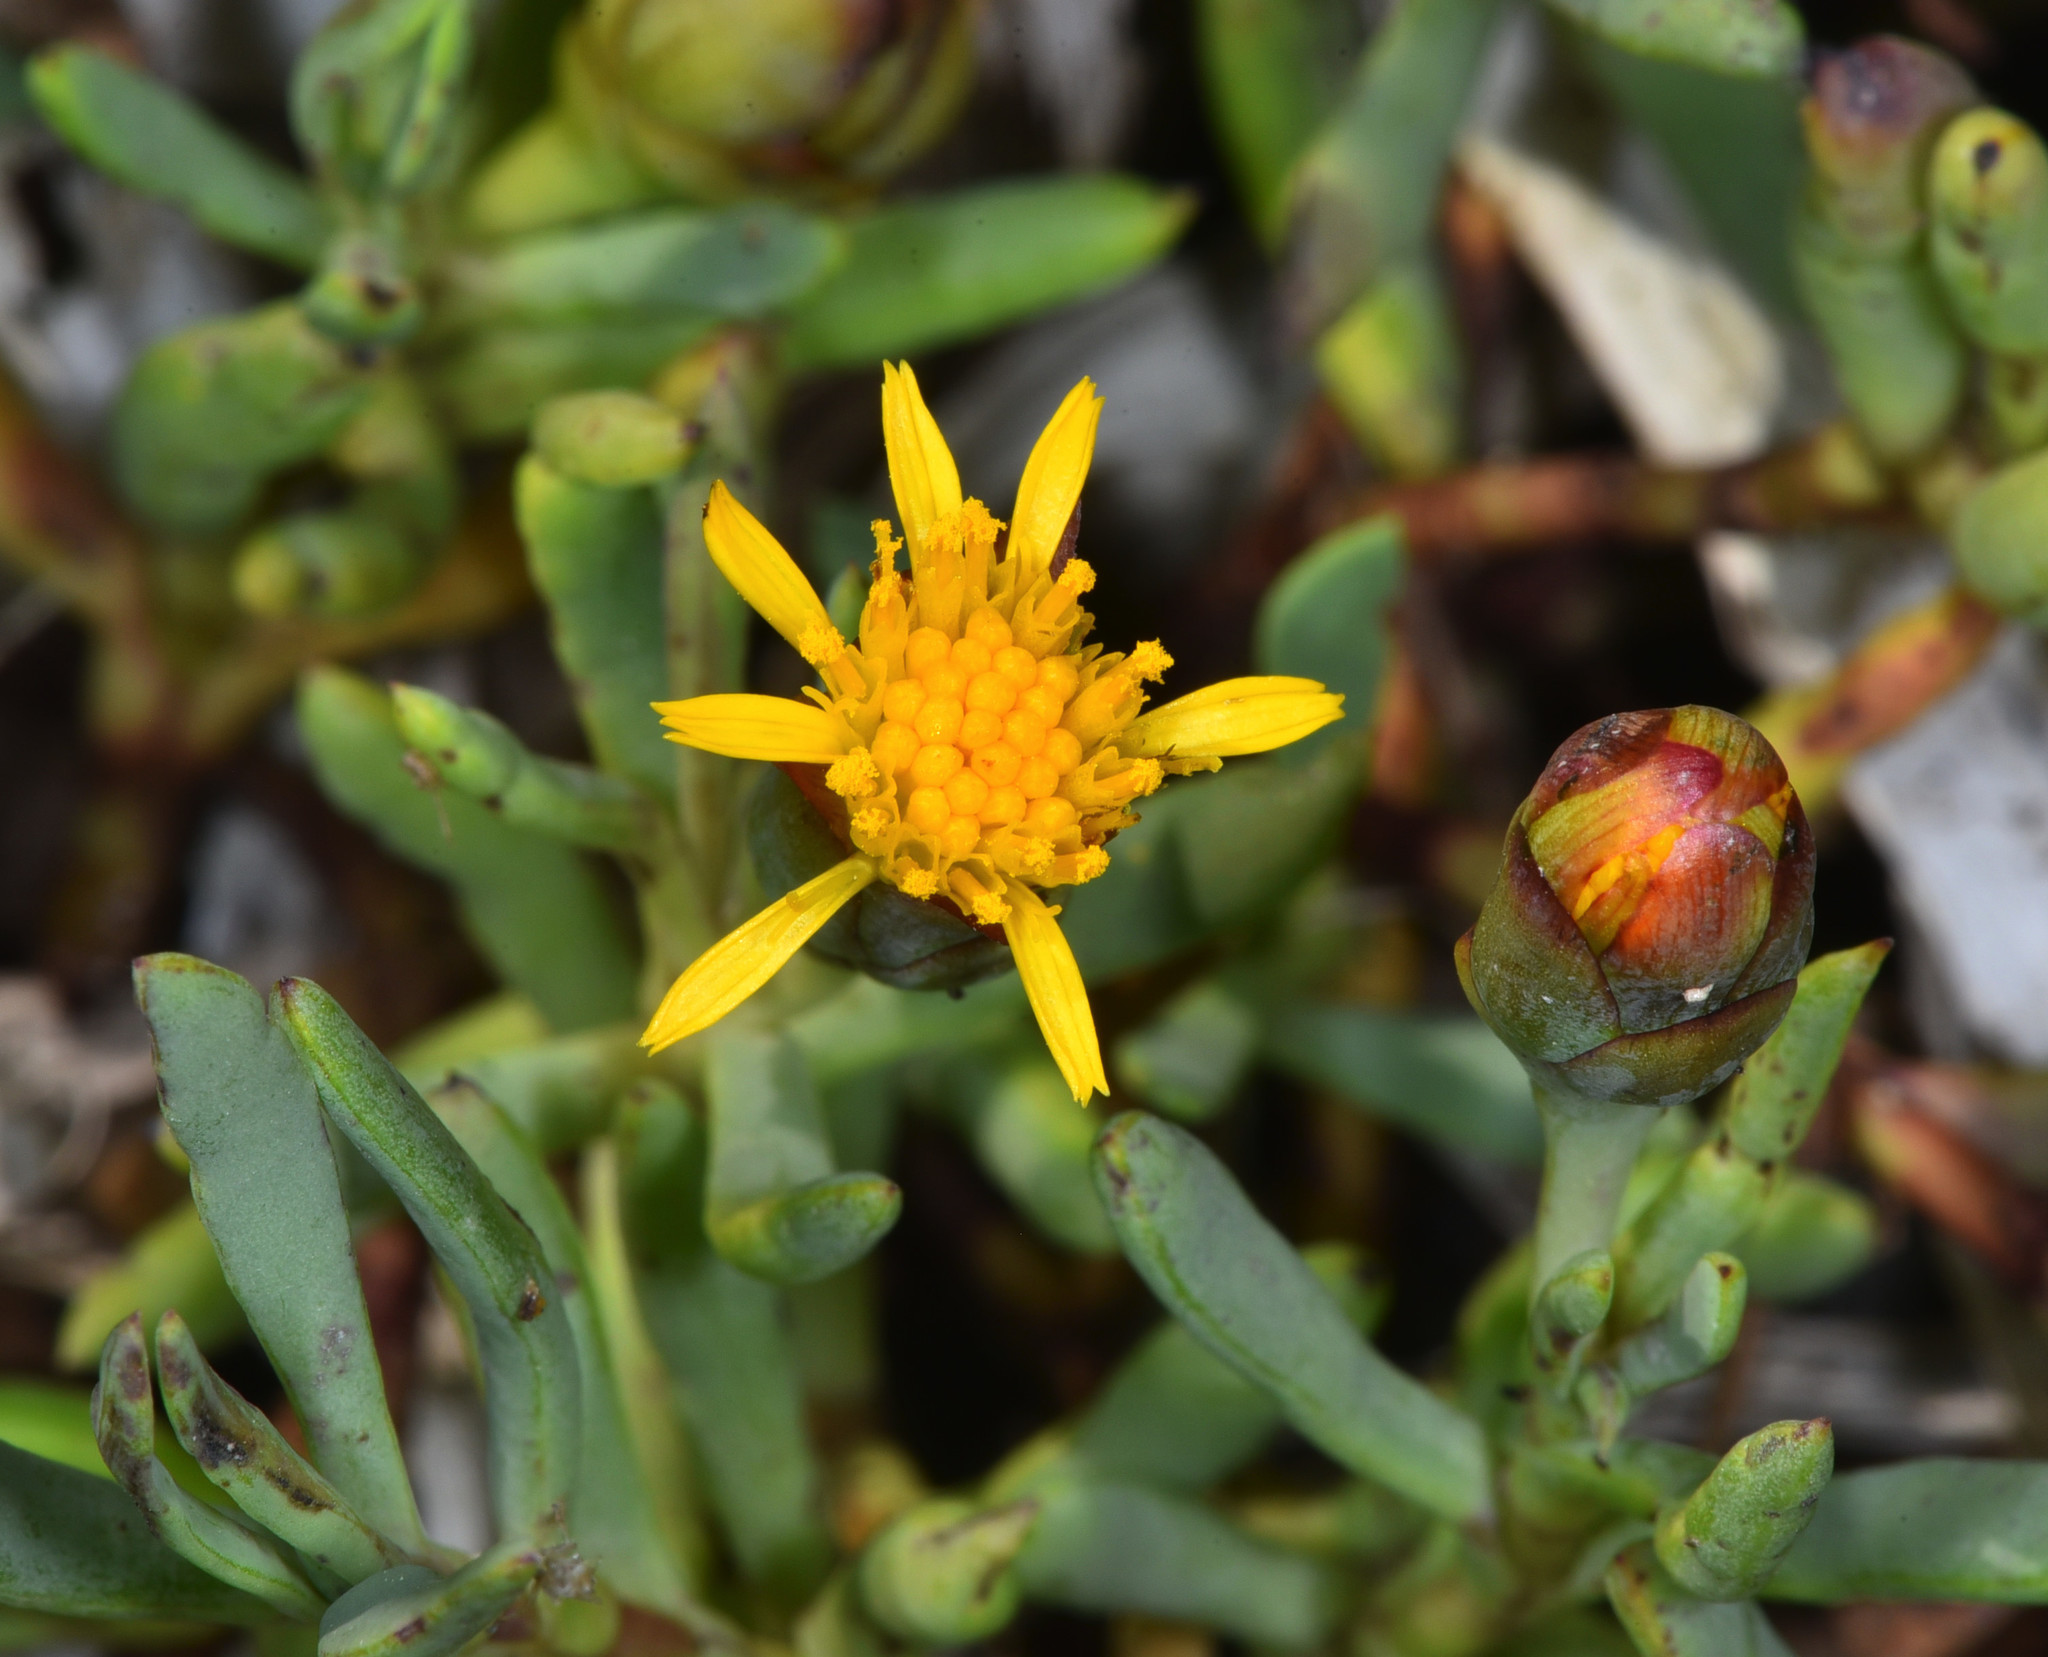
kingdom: Plantae
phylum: Tracheophyta
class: Magnoliopsida
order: Asterales
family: Asteraceae
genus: Jaumea
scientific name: Jaumea carnosa
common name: Fleshy jaumea
